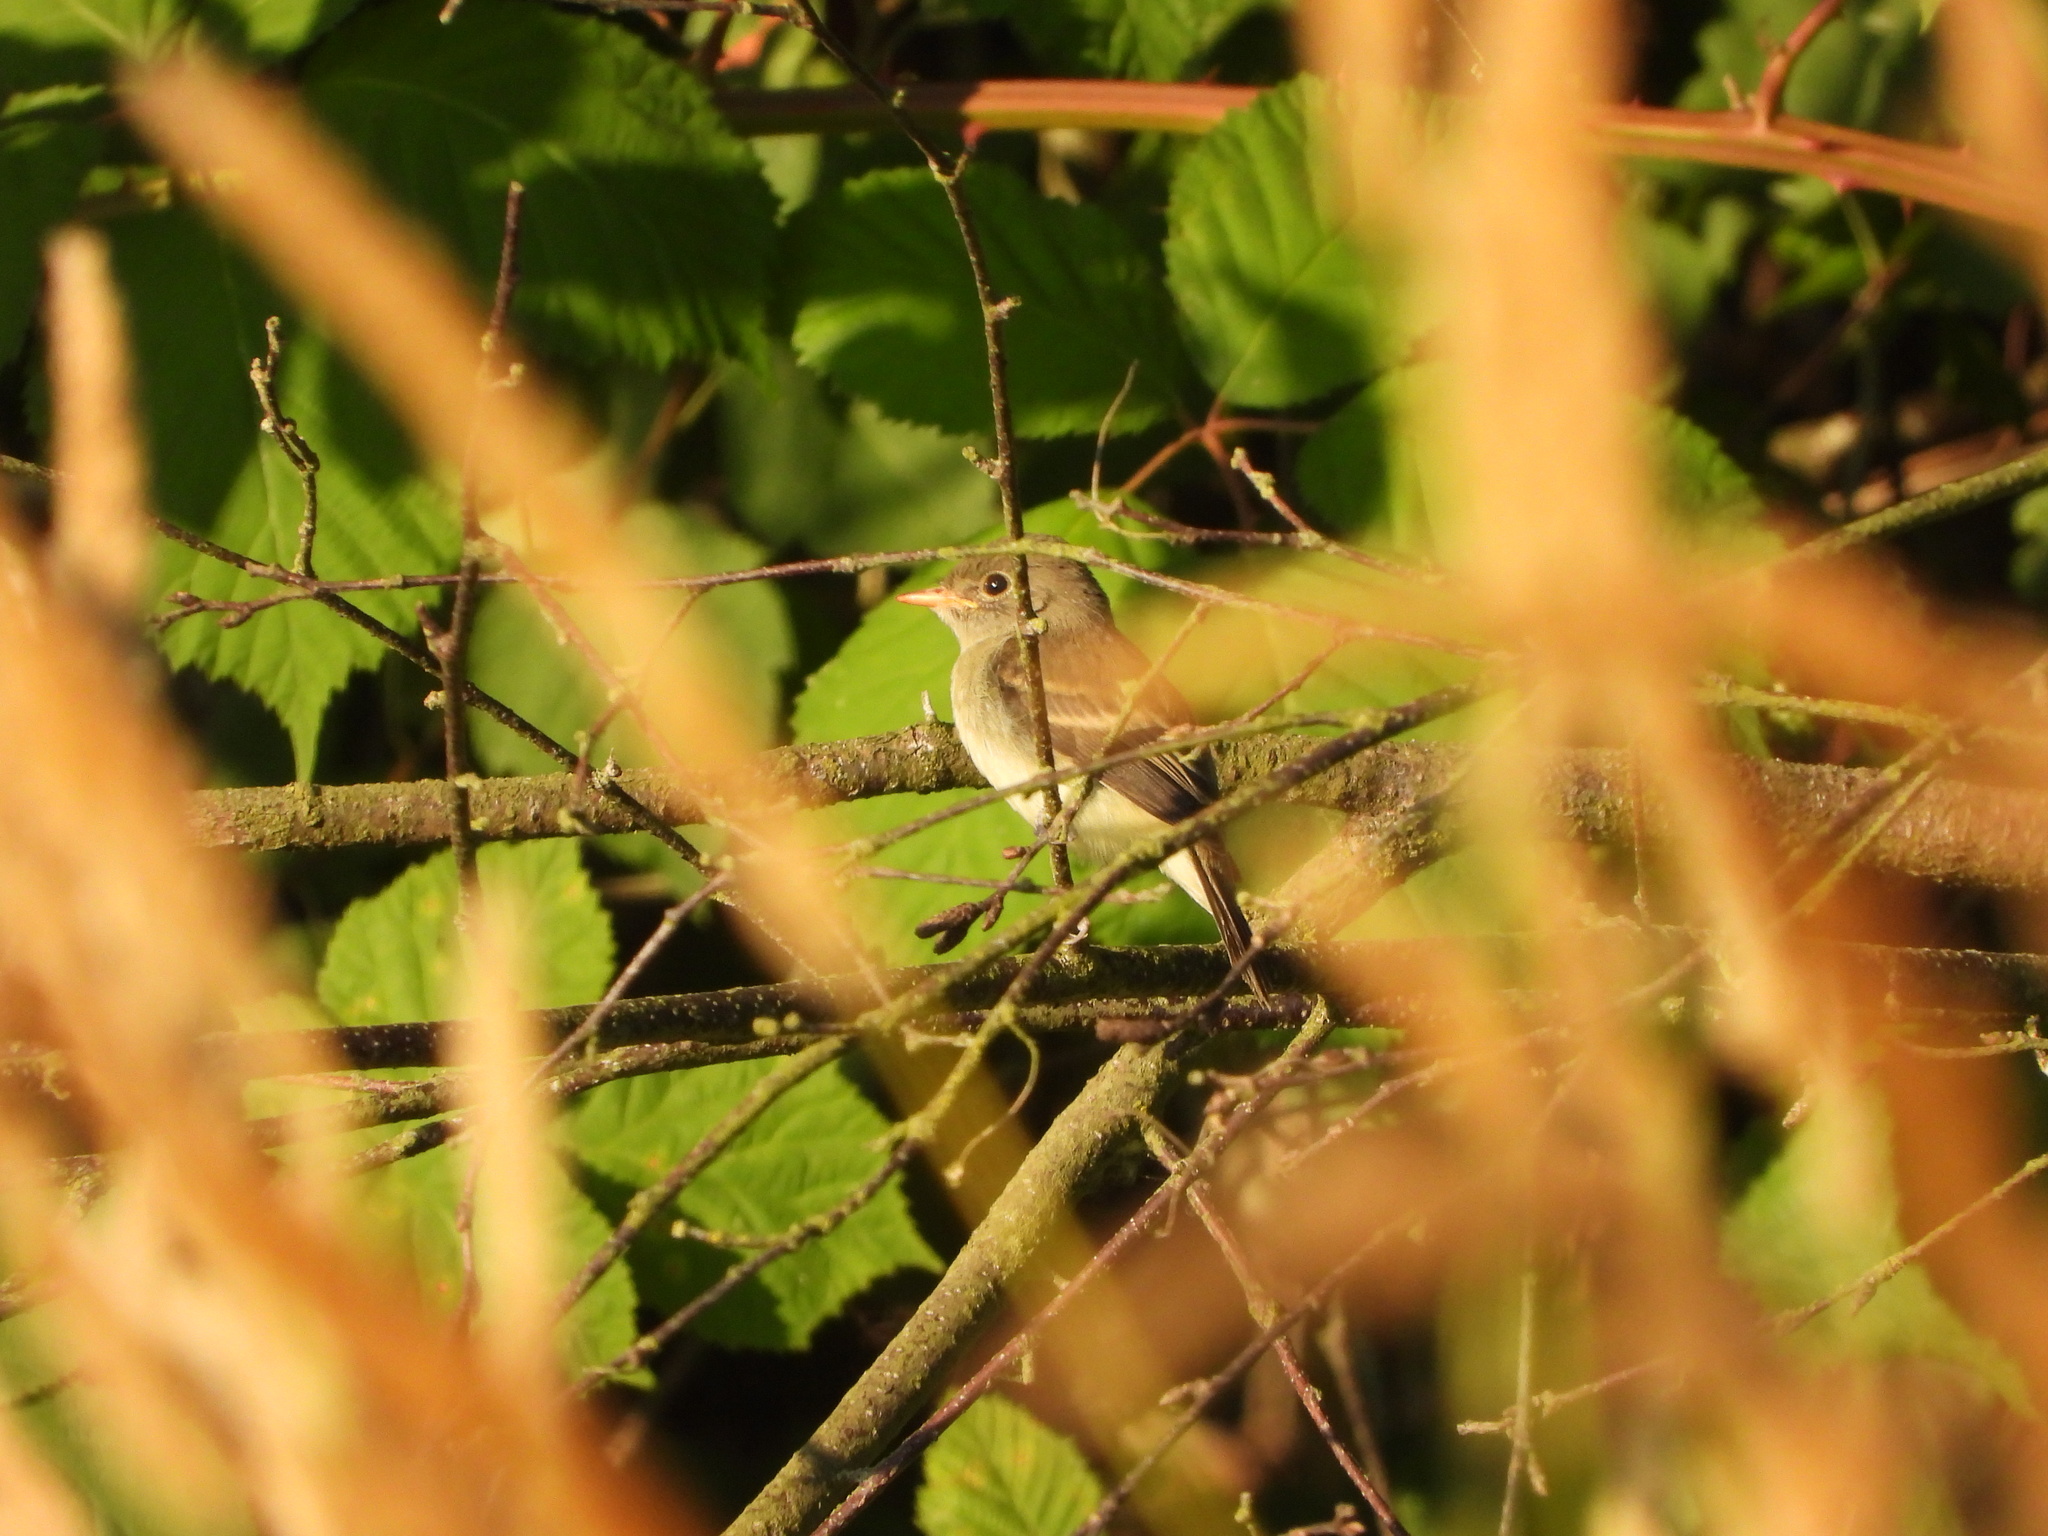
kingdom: Animalia
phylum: Chordata
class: Aves
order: Passeriformes
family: Tyrannidae
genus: Empidonax
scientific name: Empidonax traillii
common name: Willow flycatcher
